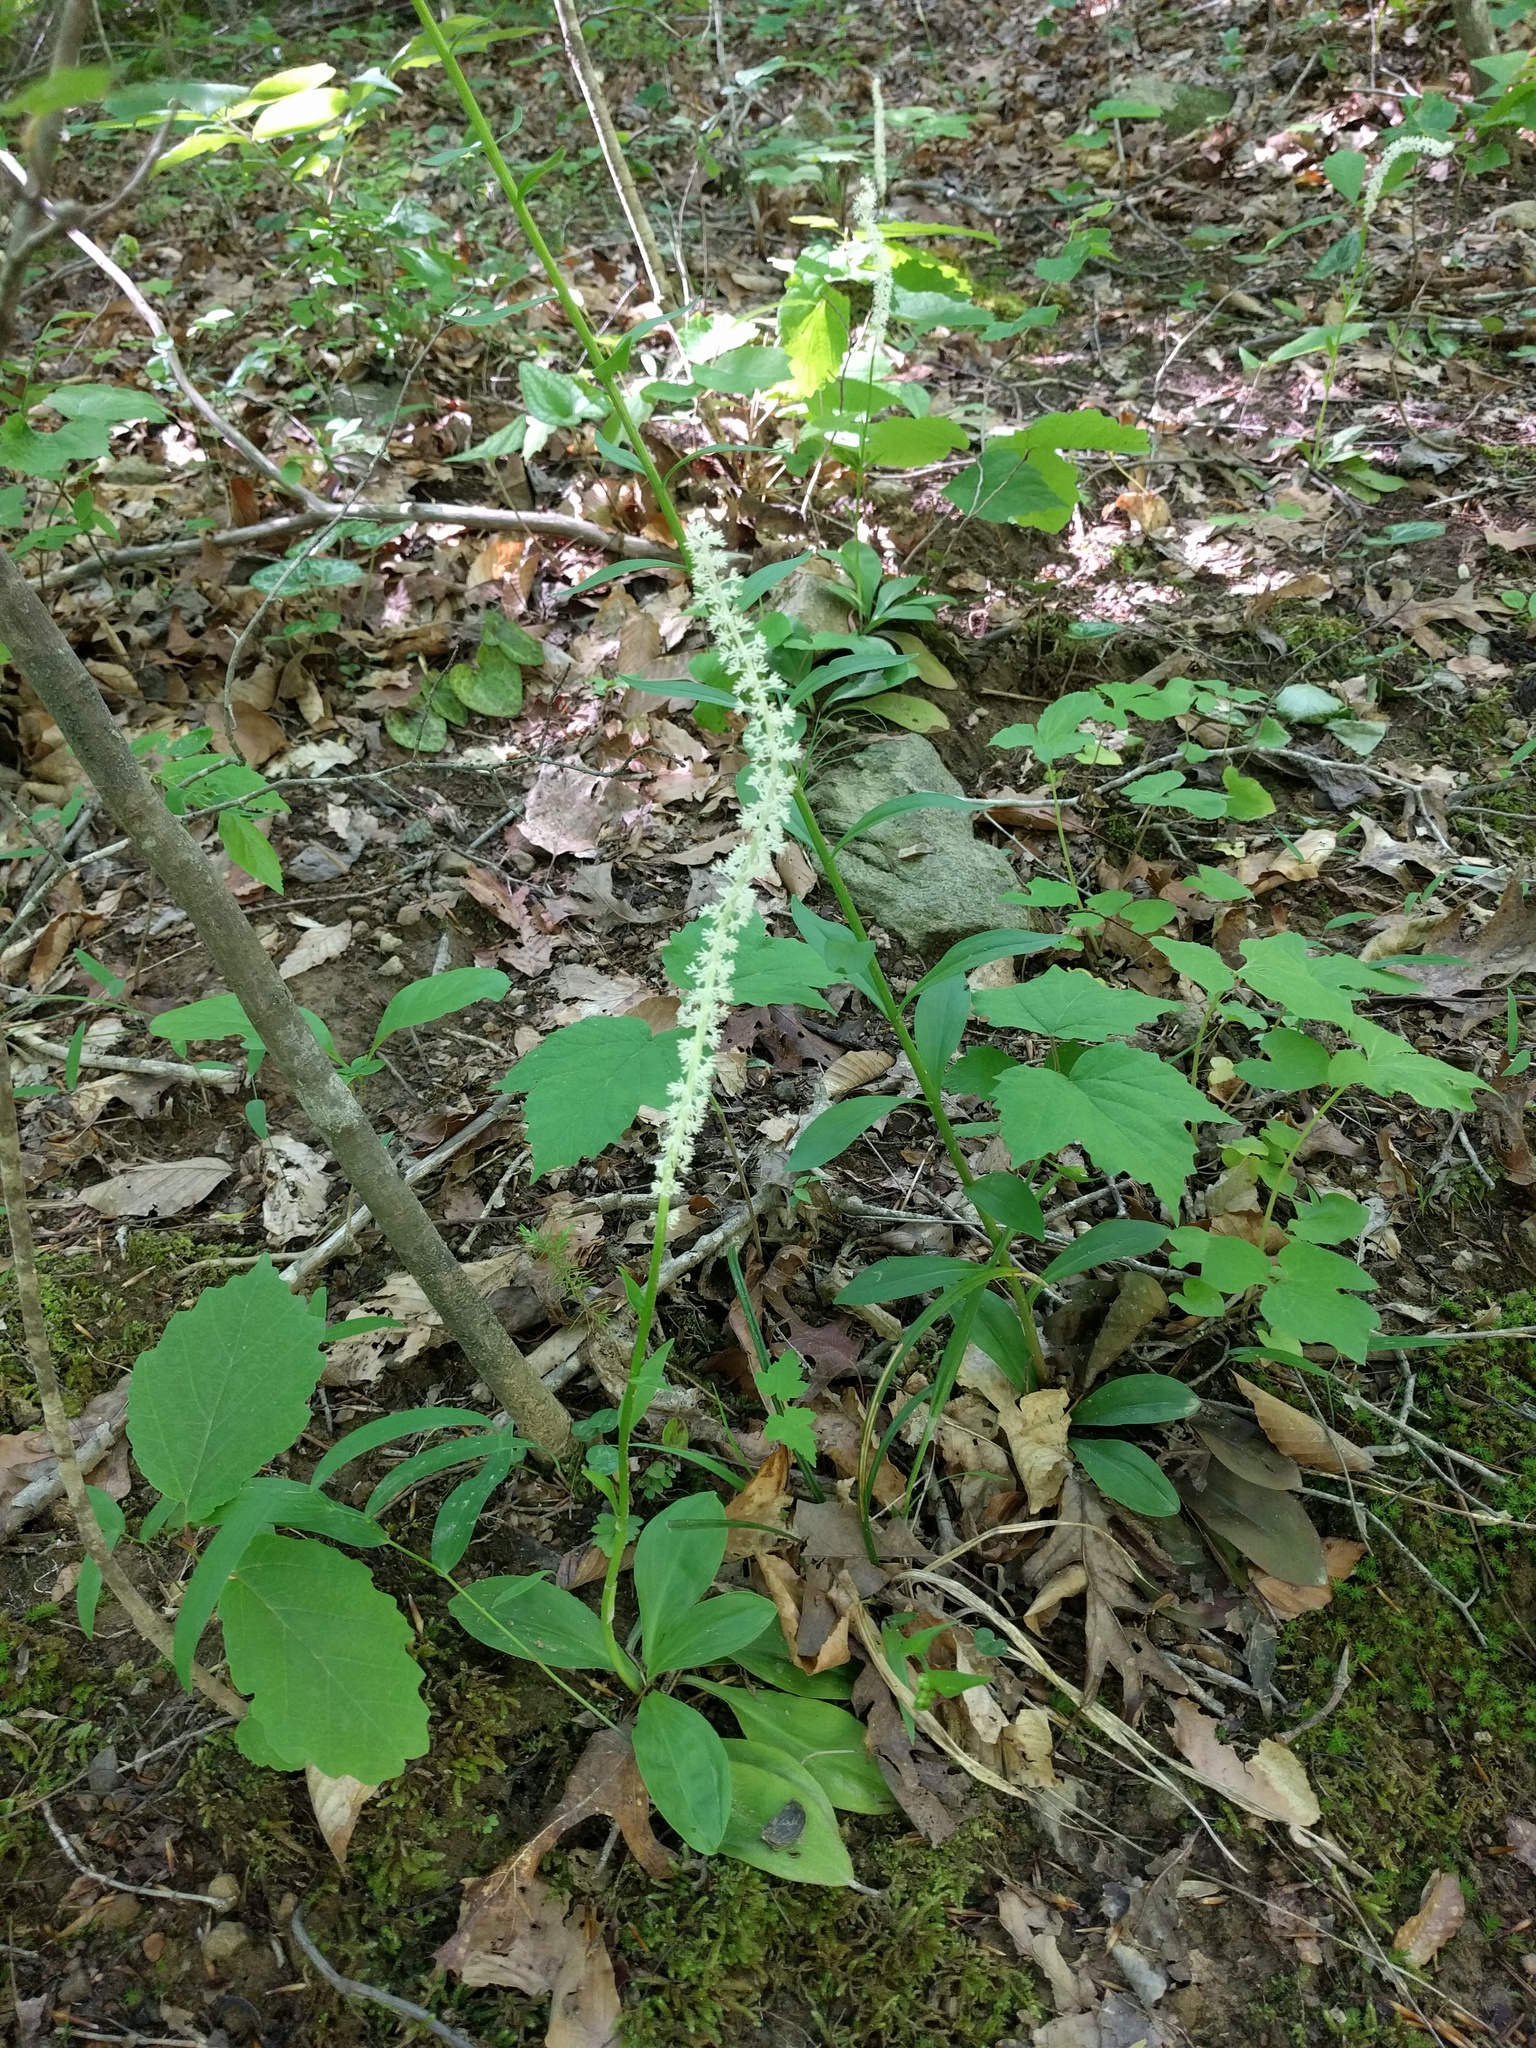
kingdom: Plantae
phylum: Tracheophyta
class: Liliopsida
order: Liliales
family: Melanthiaceae
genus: Chamaelirium
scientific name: Chamaelirium luteum
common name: Fairy-wand
